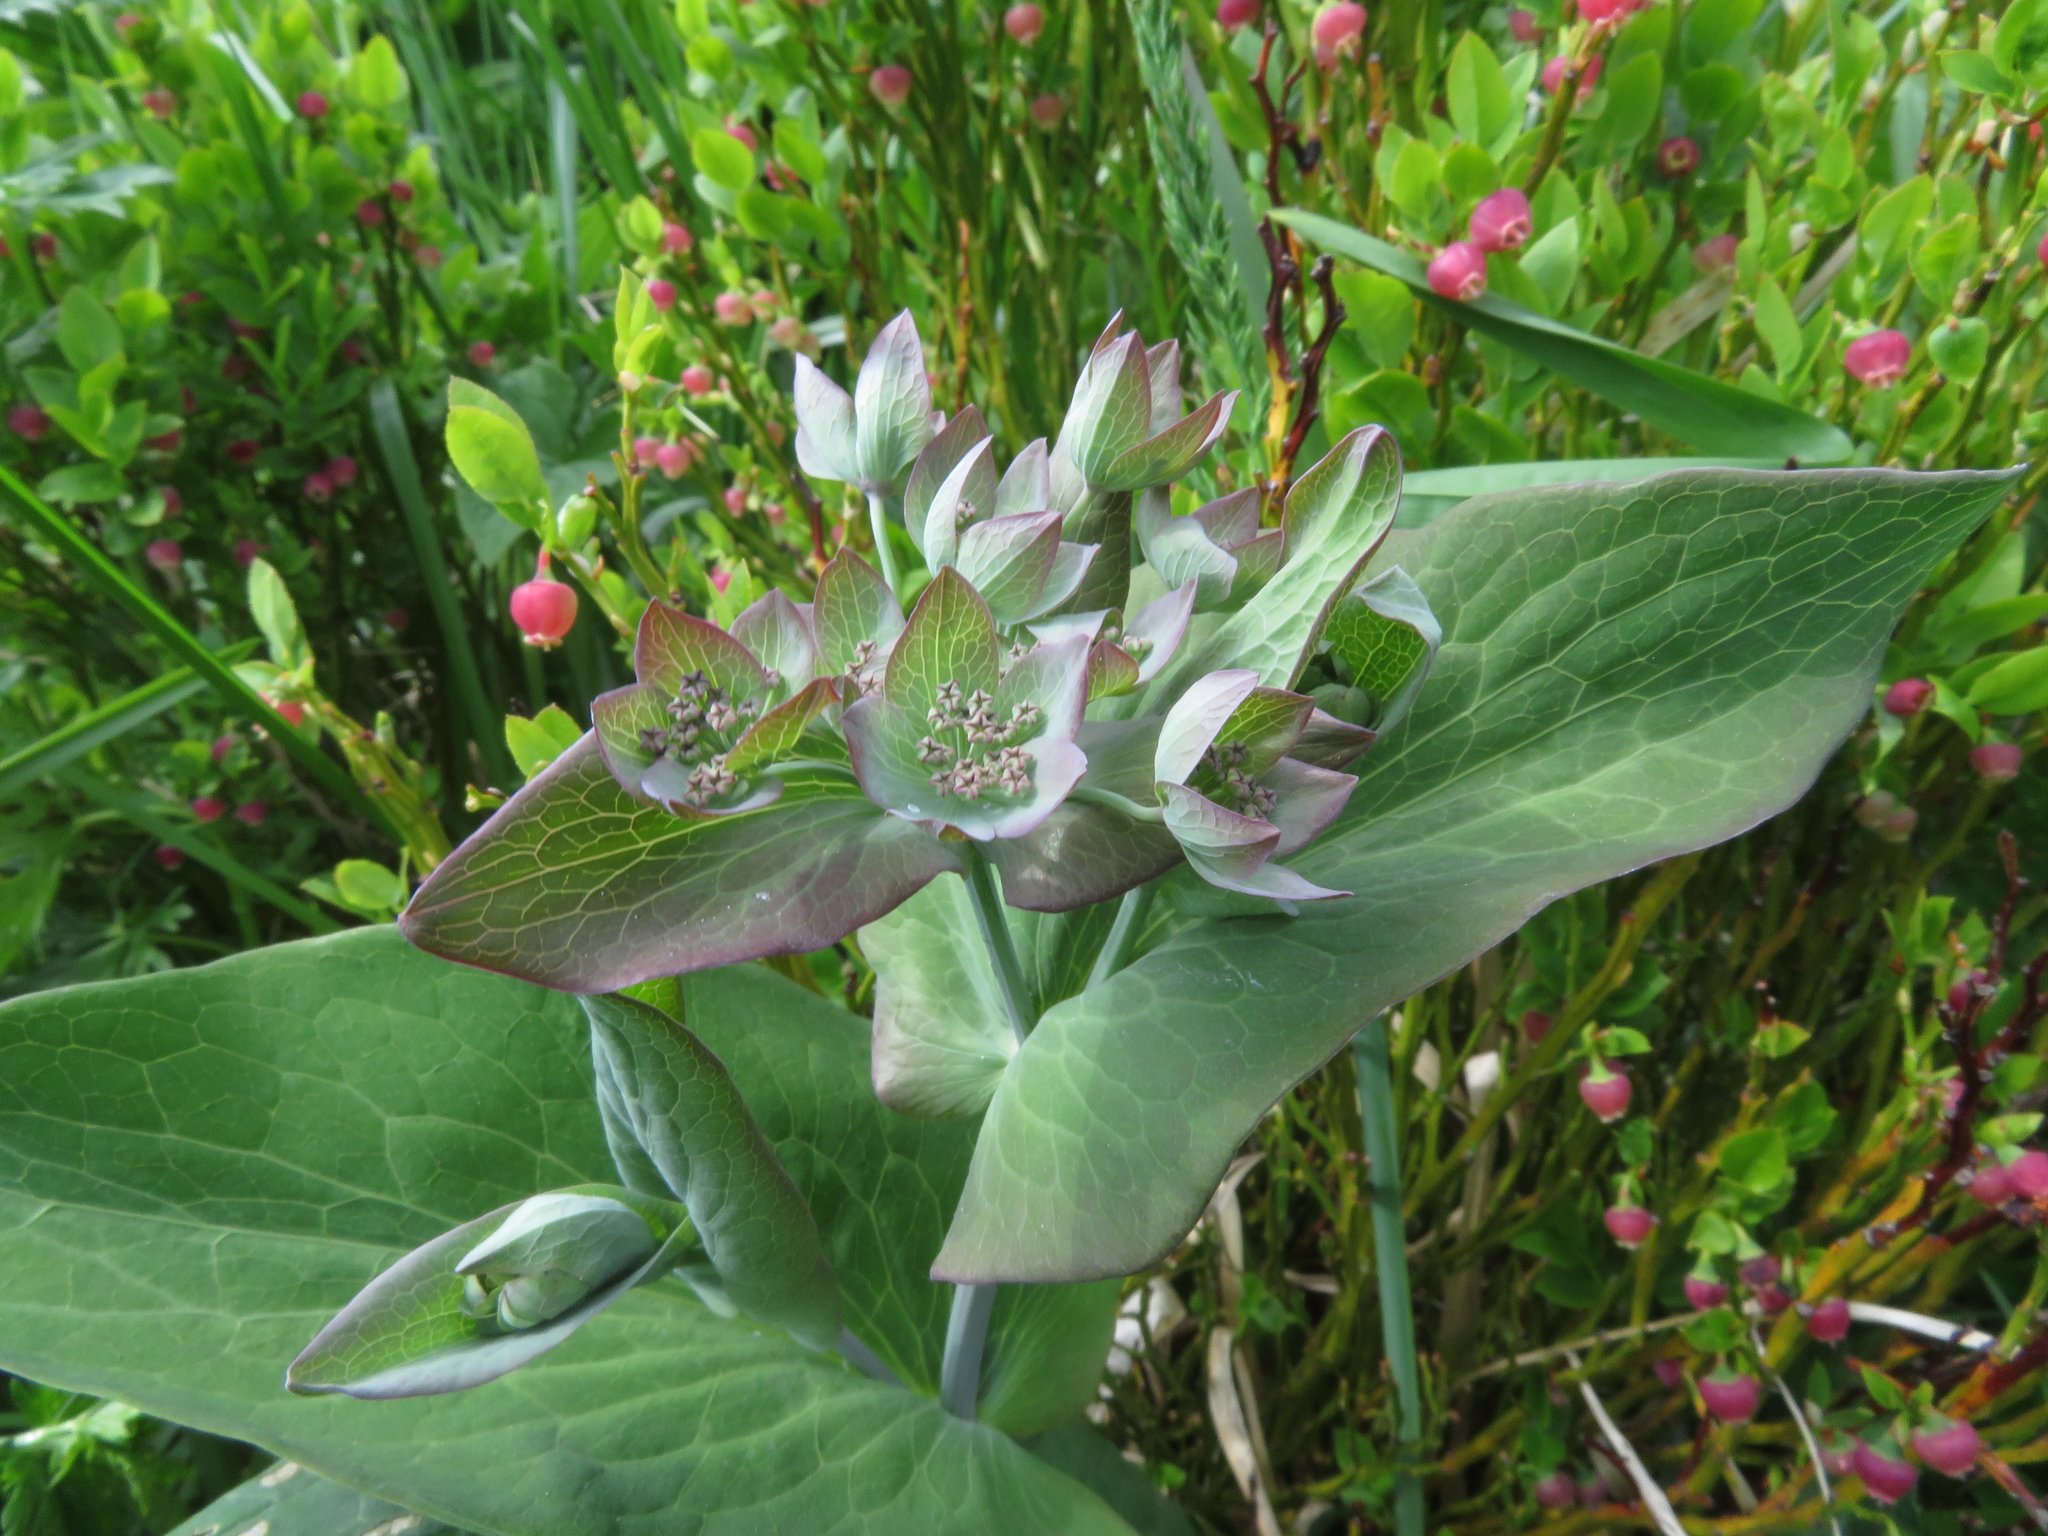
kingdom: Plantae
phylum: Tracheophyta
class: Magnoliopsida
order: Apiales
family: Apiaceae
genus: Bupleurum
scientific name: Bupleurum longifolium
